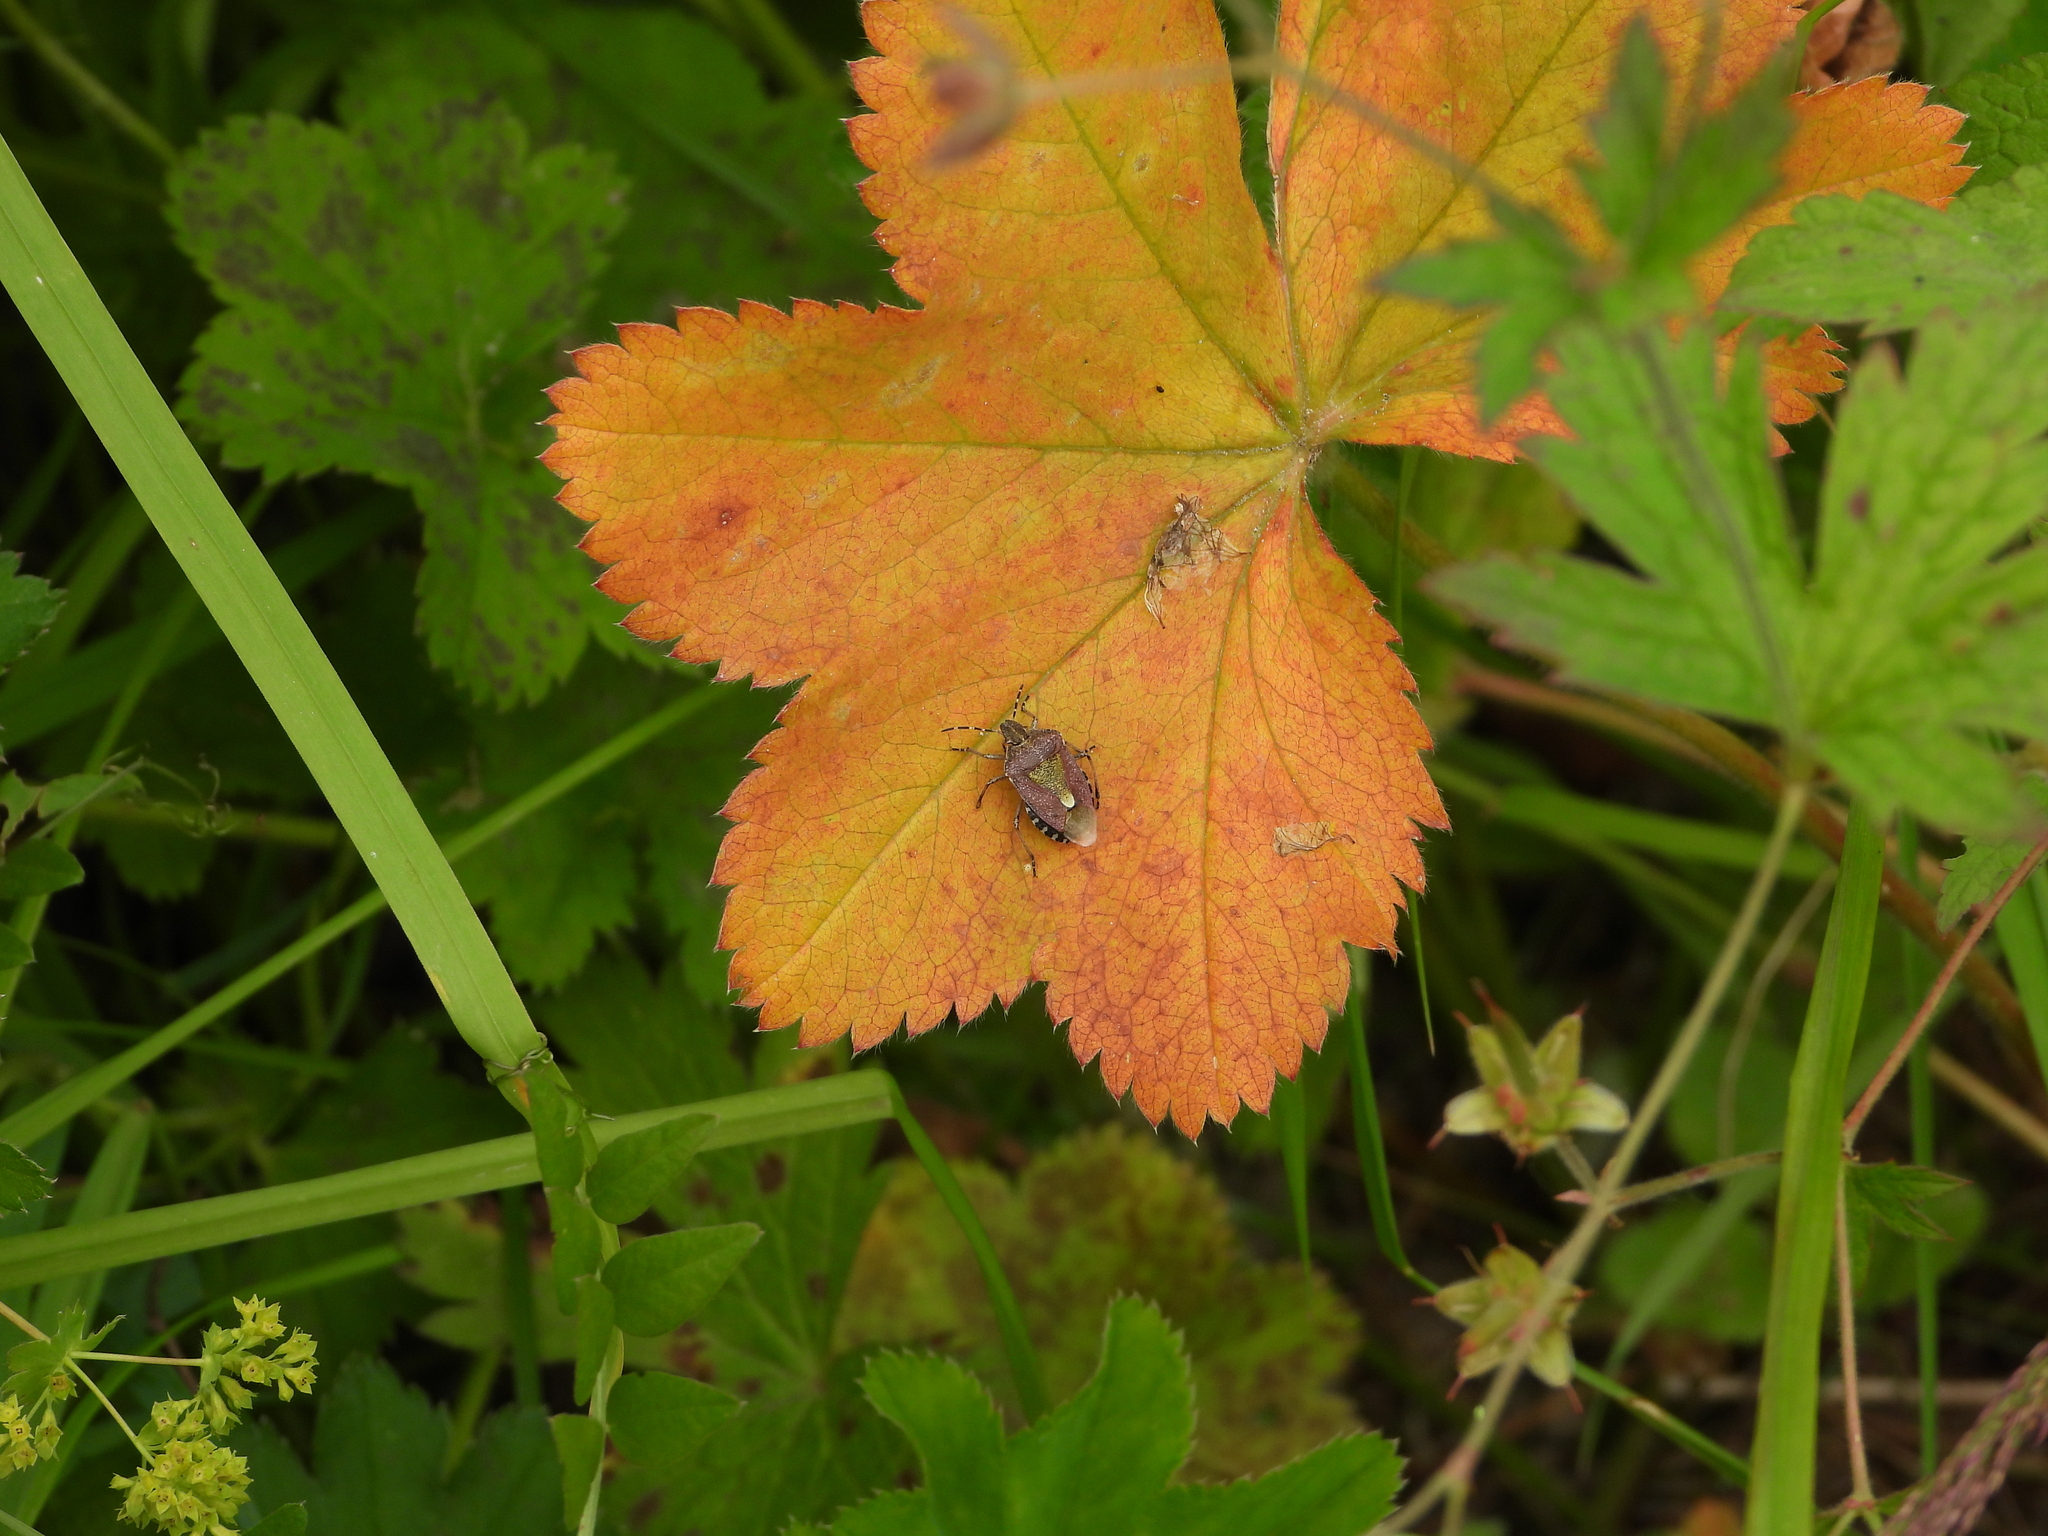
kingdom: Animalia
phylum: Arthropoda
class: Insecta
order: Hemiptera
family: Pentatomidae
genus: Dolycoris
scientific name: Dolycoris baccarum
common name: Sloe bug
